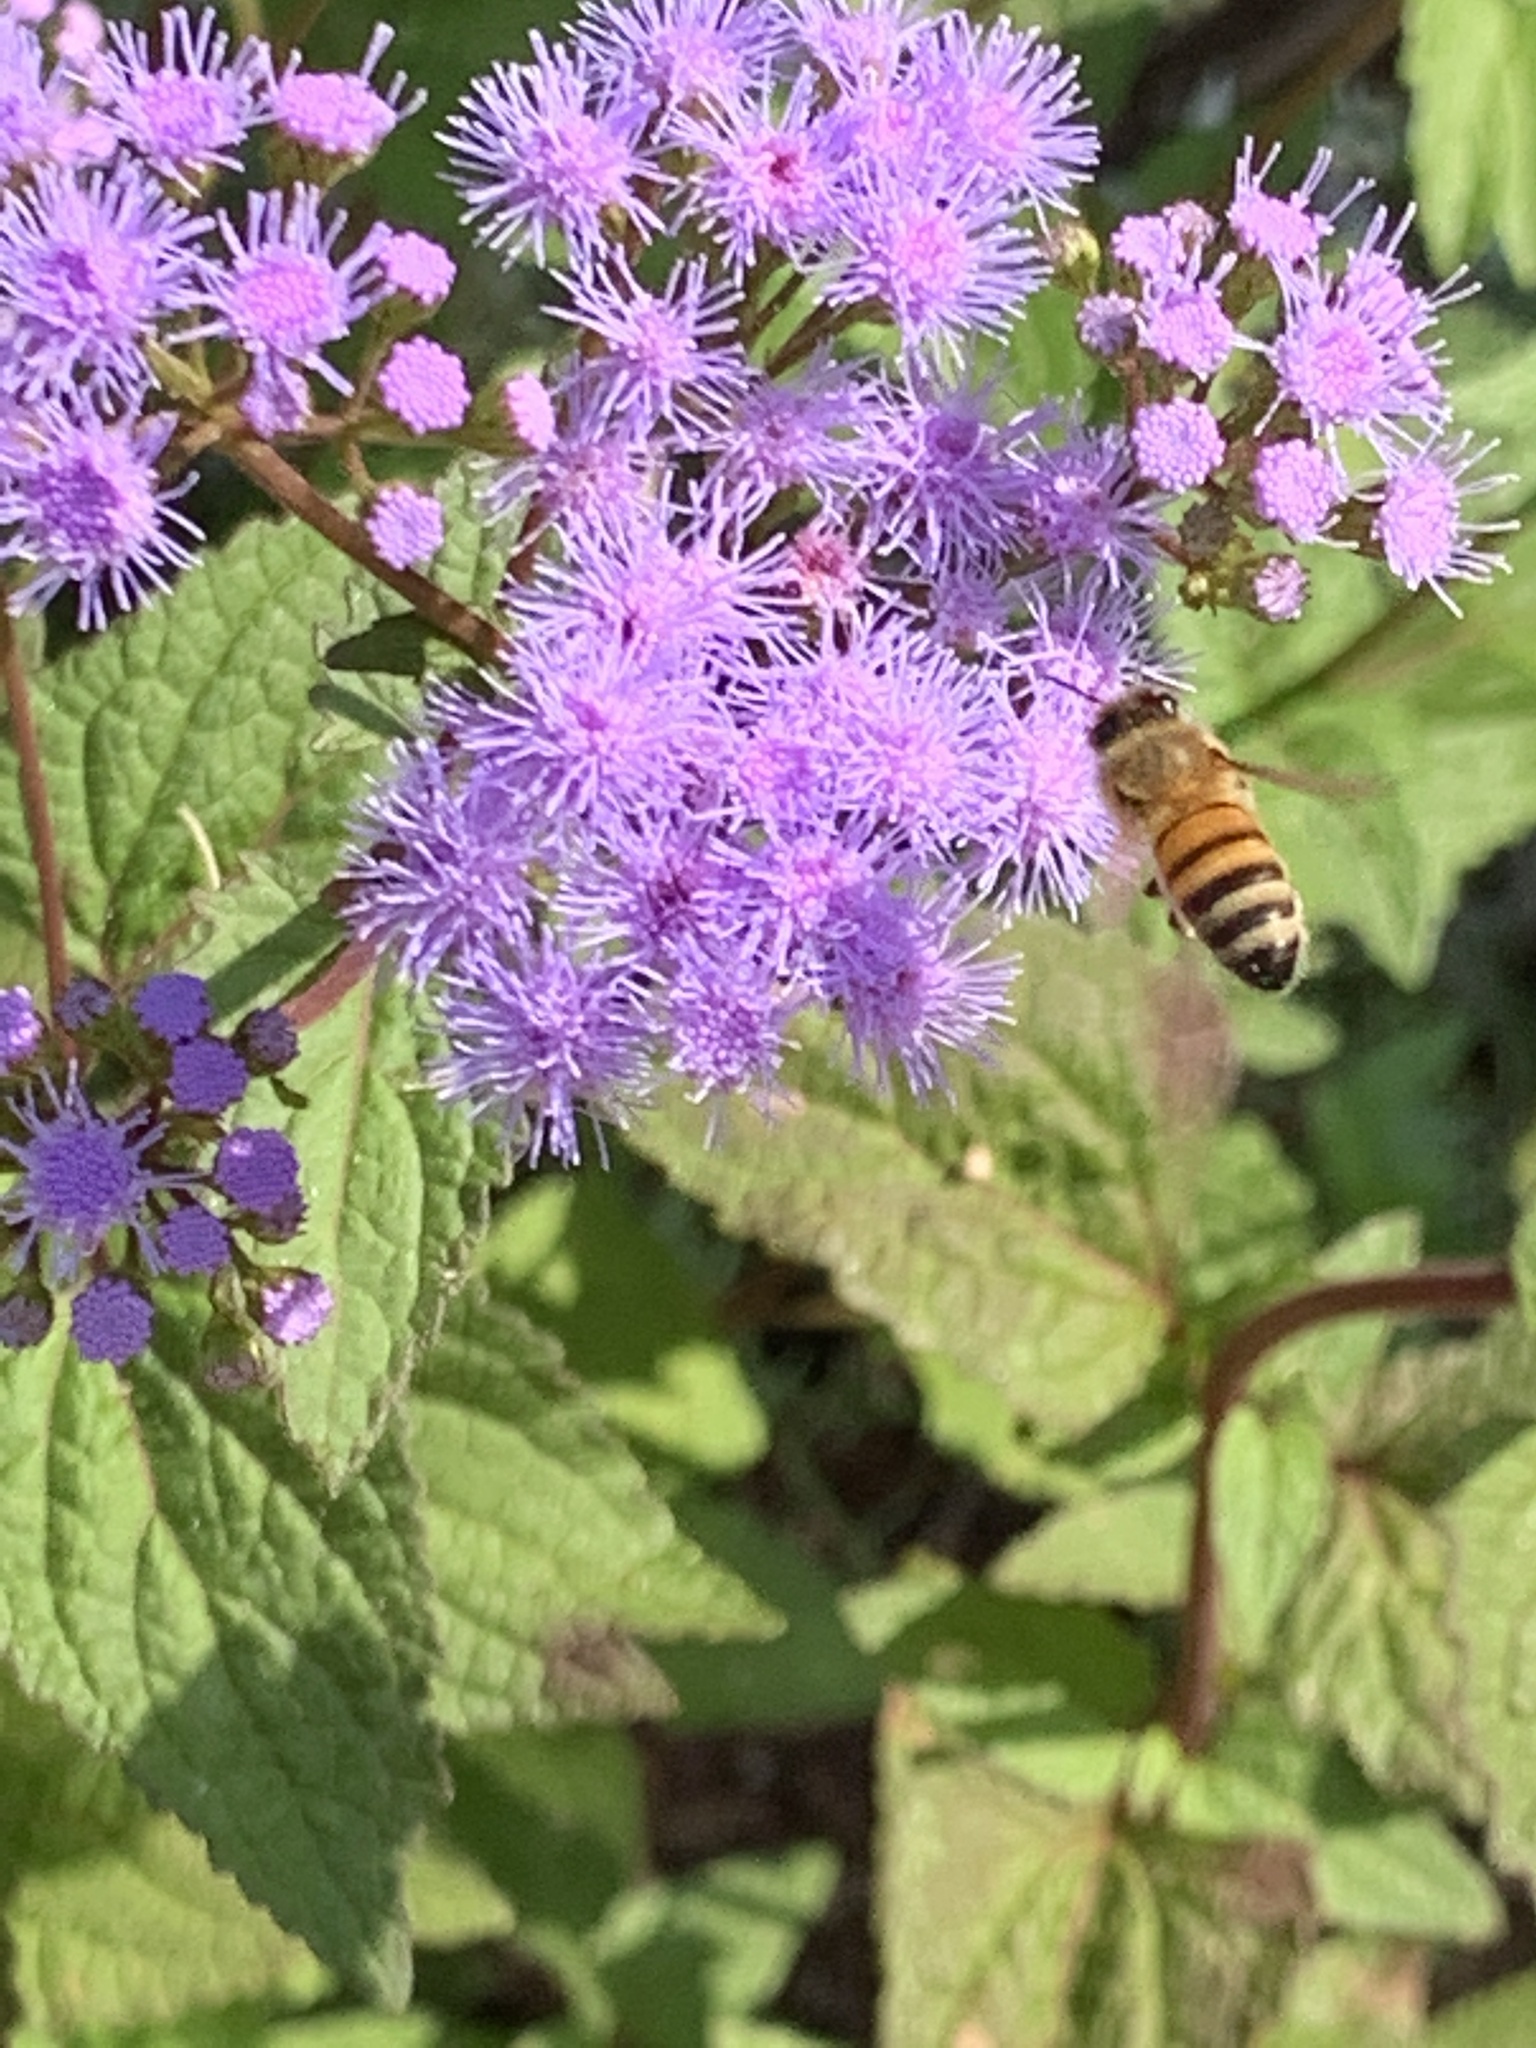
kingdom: Animalia
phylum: Arthropoda
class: Insecta
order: Hymenoptera
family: Apidae
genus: Apis
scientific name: Apis mellifera
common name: Honey bee
